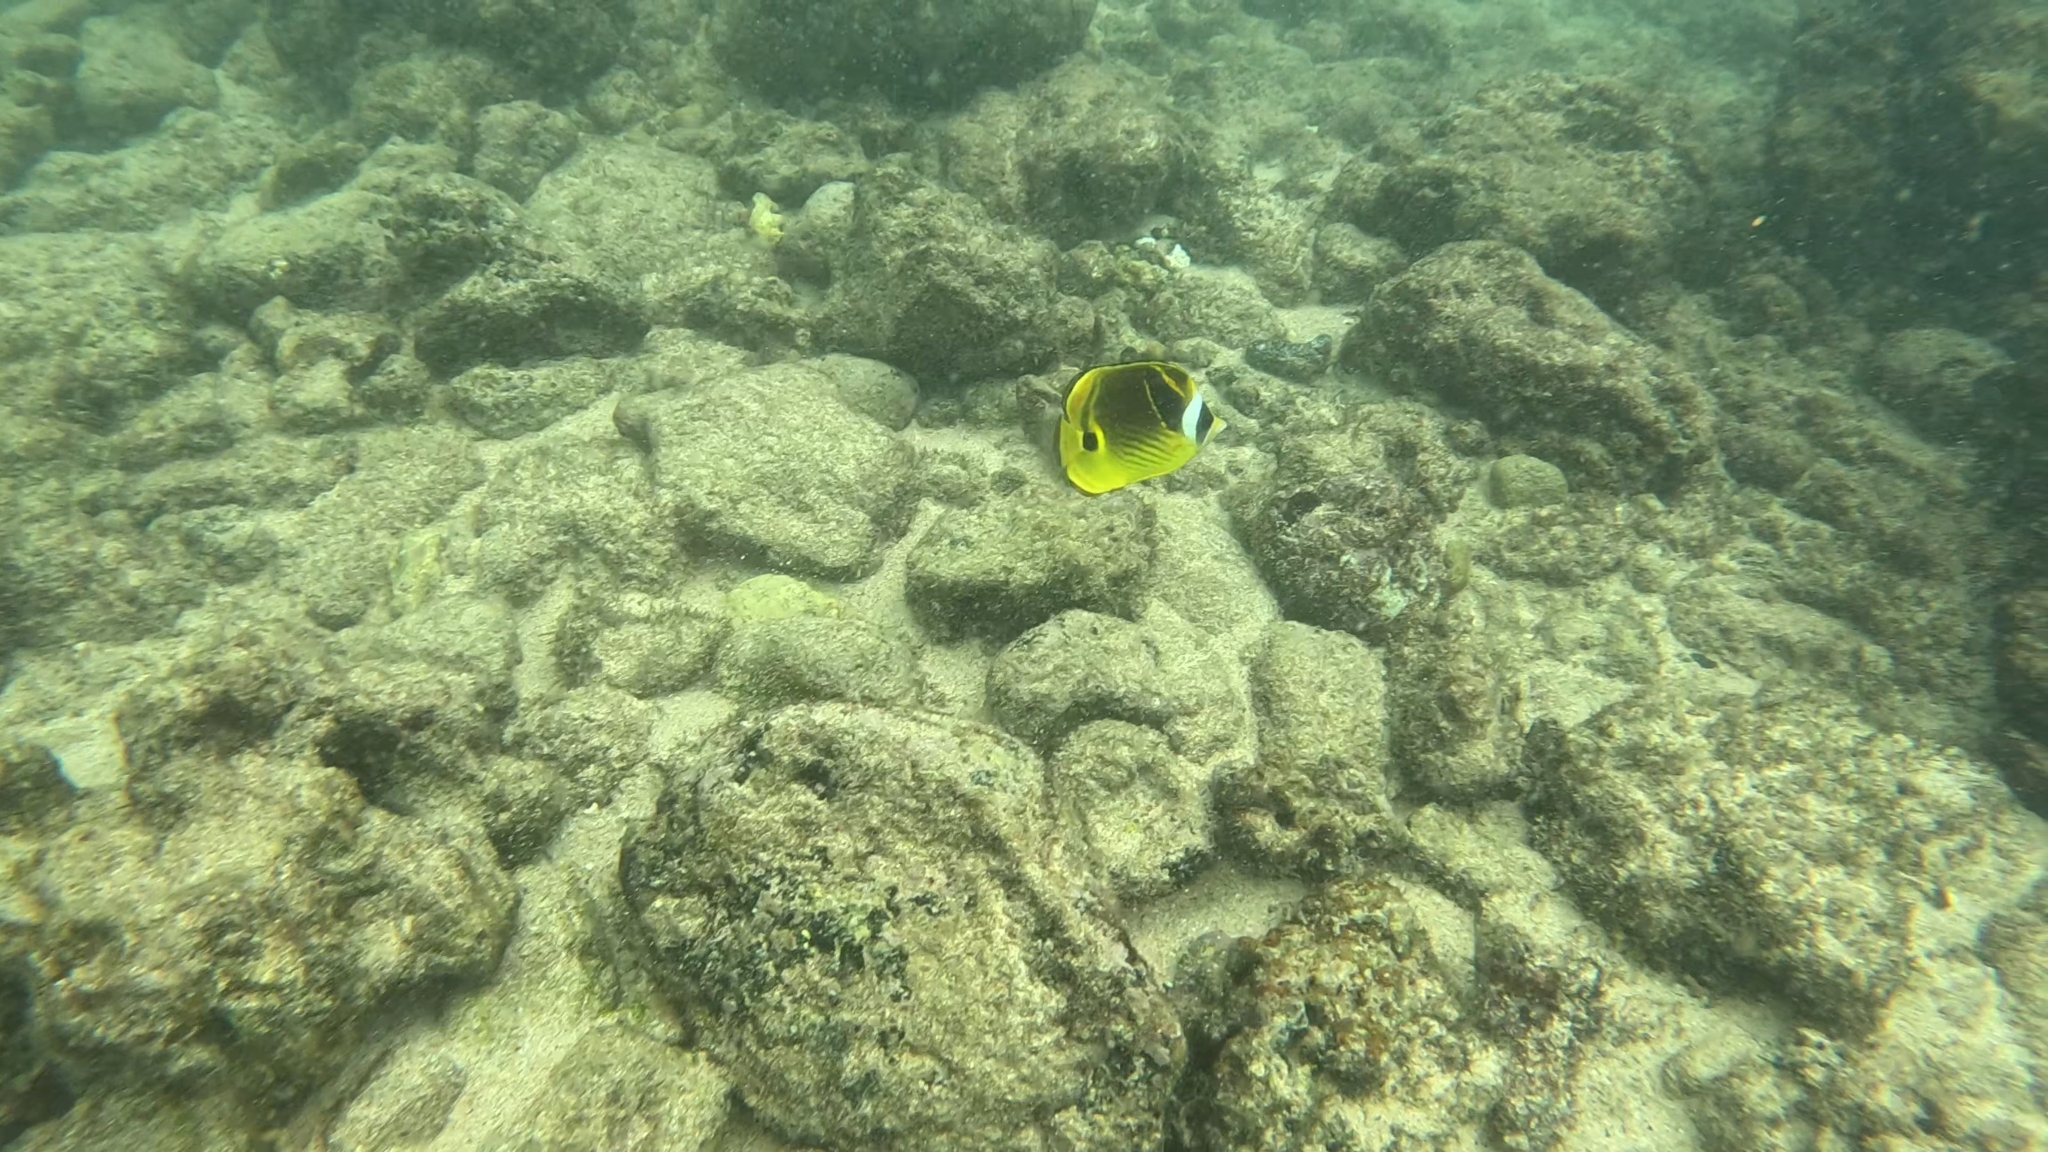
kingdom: Animalia
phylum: Chordata
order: Perciformes
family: Chaetodontidae
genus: Chaetodon
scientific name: Chaetodon lunula
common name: Raccoon butterflyfish
